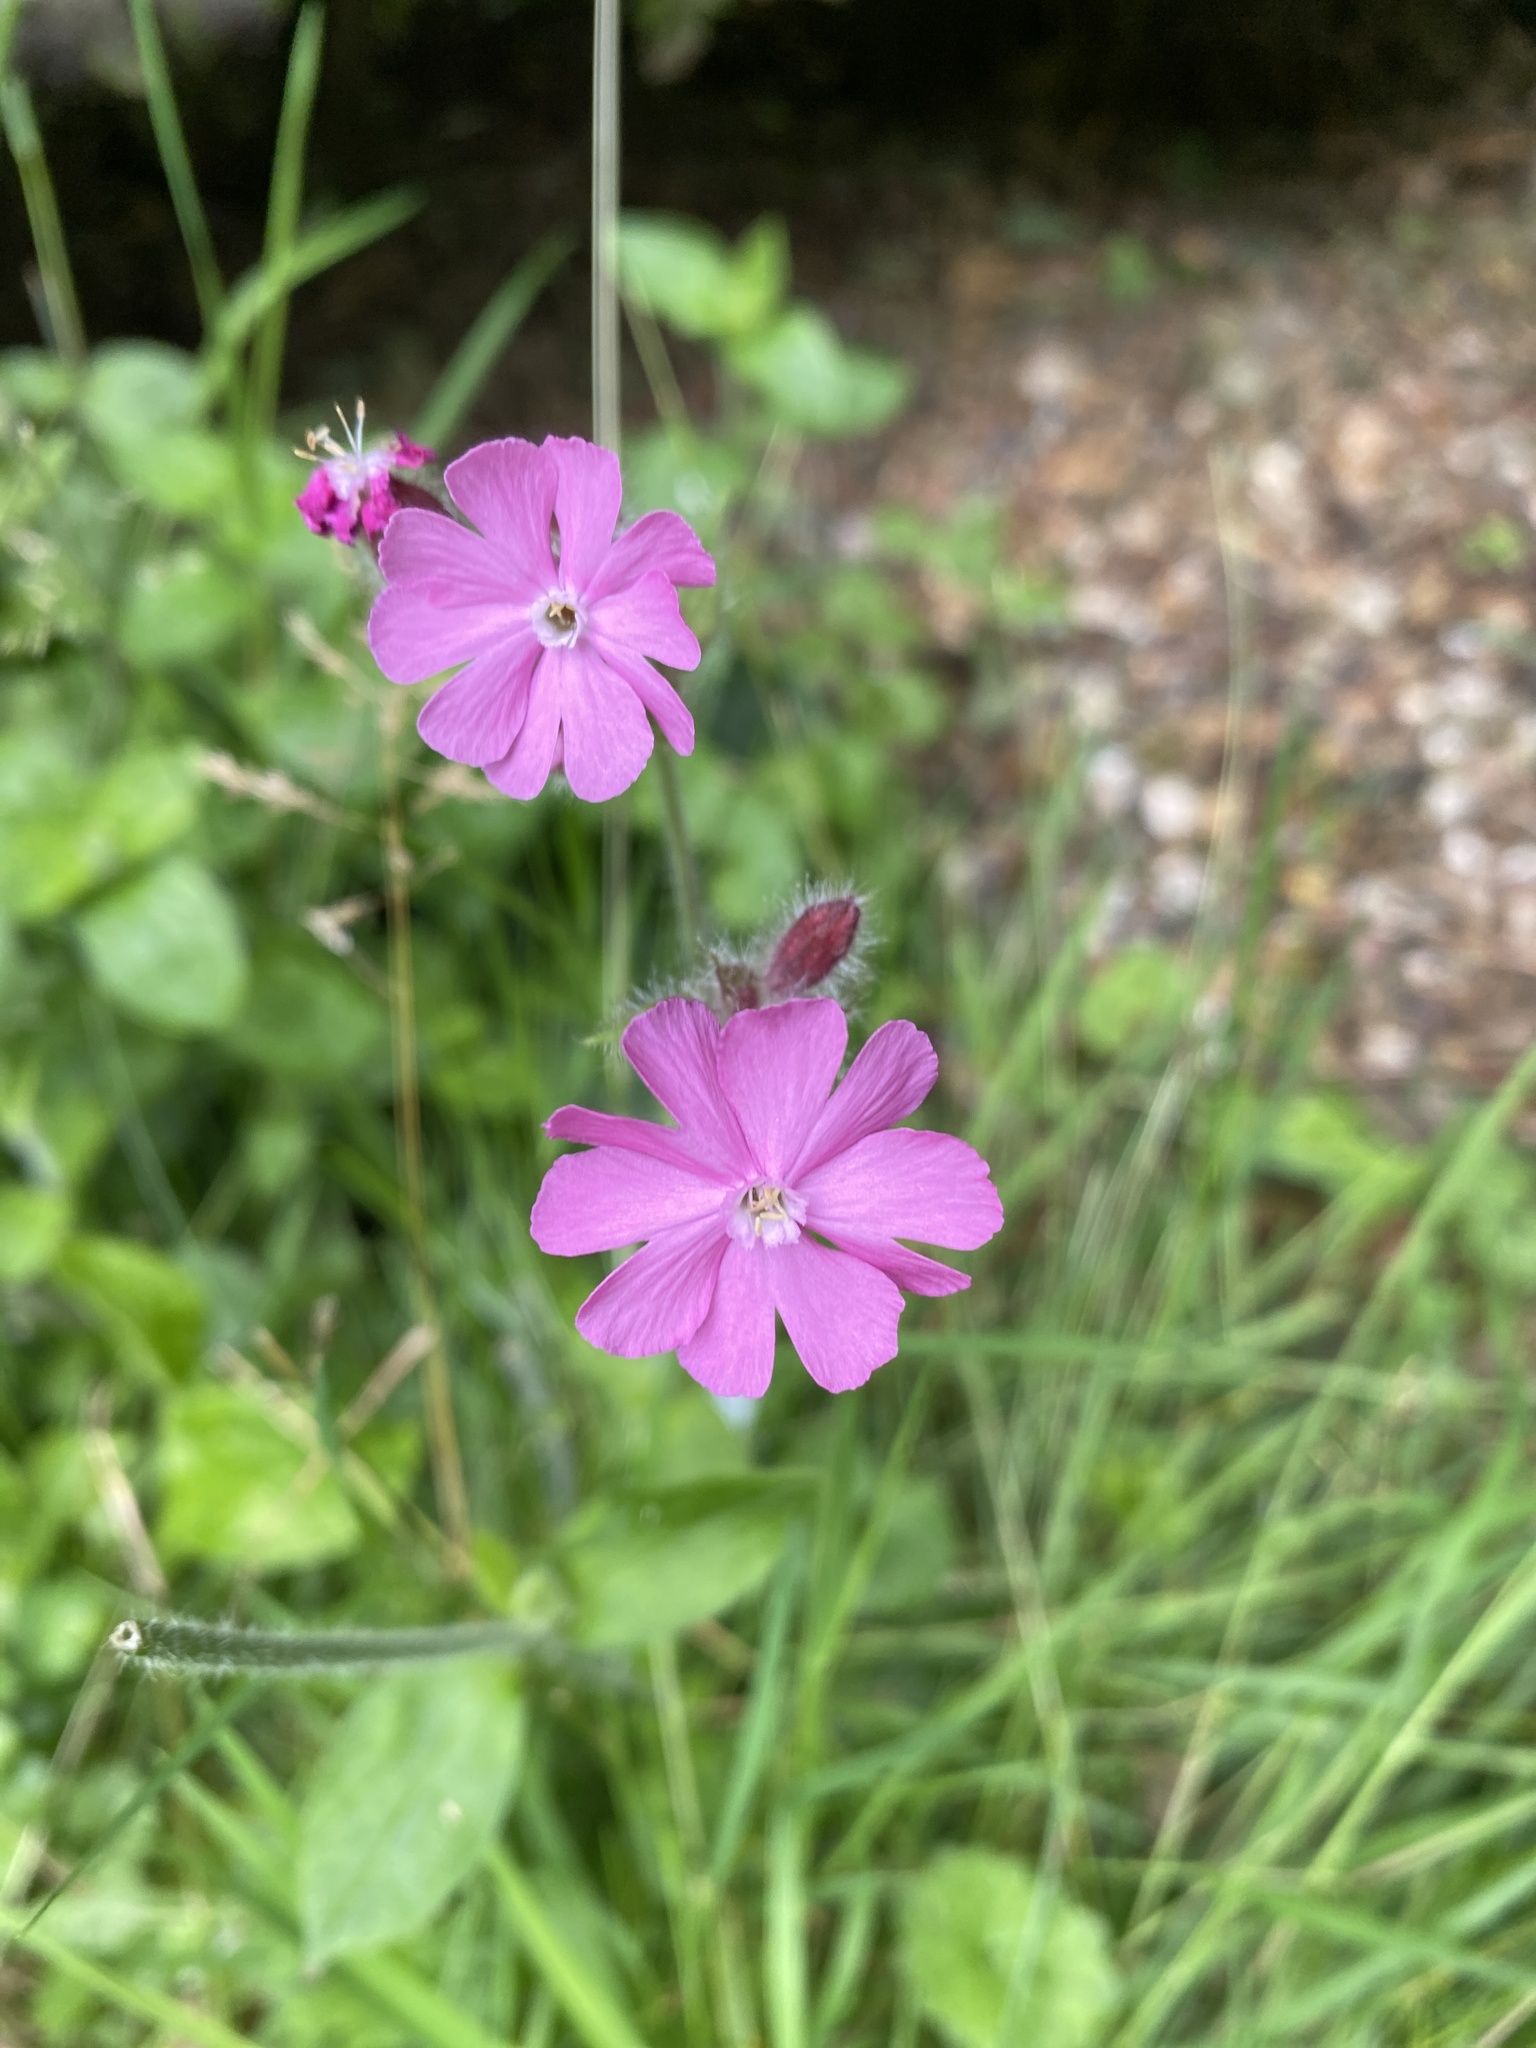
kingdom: Plantae
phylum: Tracheophyta
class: Magnoliopsida
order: Caryophyllales
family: Caryophyllaceae
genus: Silene
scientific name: Silene dioica
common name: Red campion
